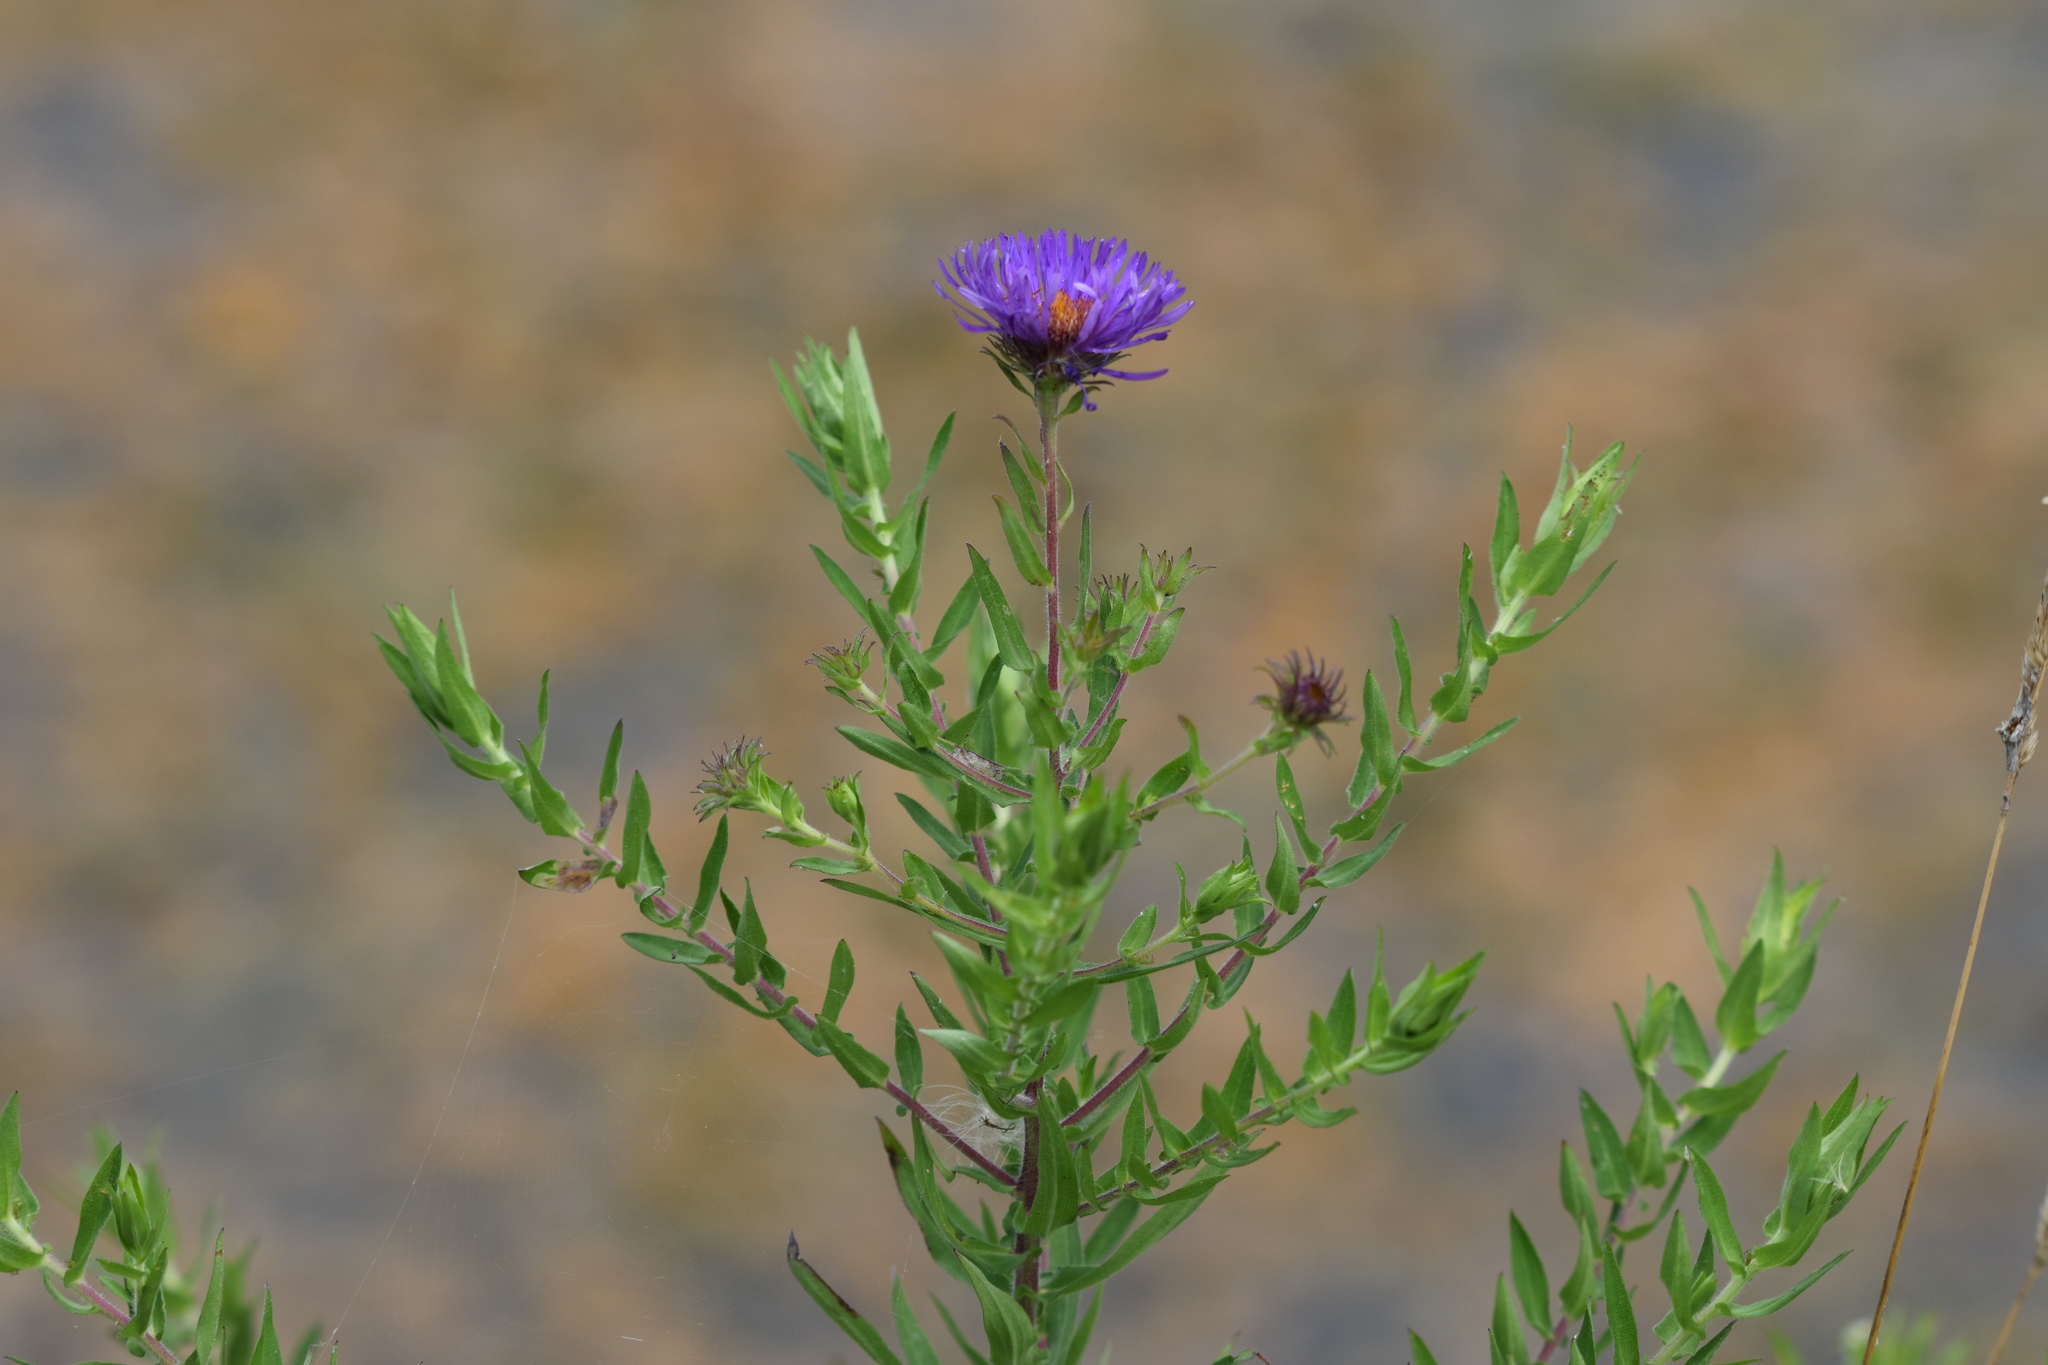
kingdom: Plantae
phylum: Tracheophyta
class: Magnoliopsida
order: Asterales
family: Asteraceae
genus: Symphyotrichum
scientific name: Symphyotrichum novae-angliae
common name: Michaelmas daisy
